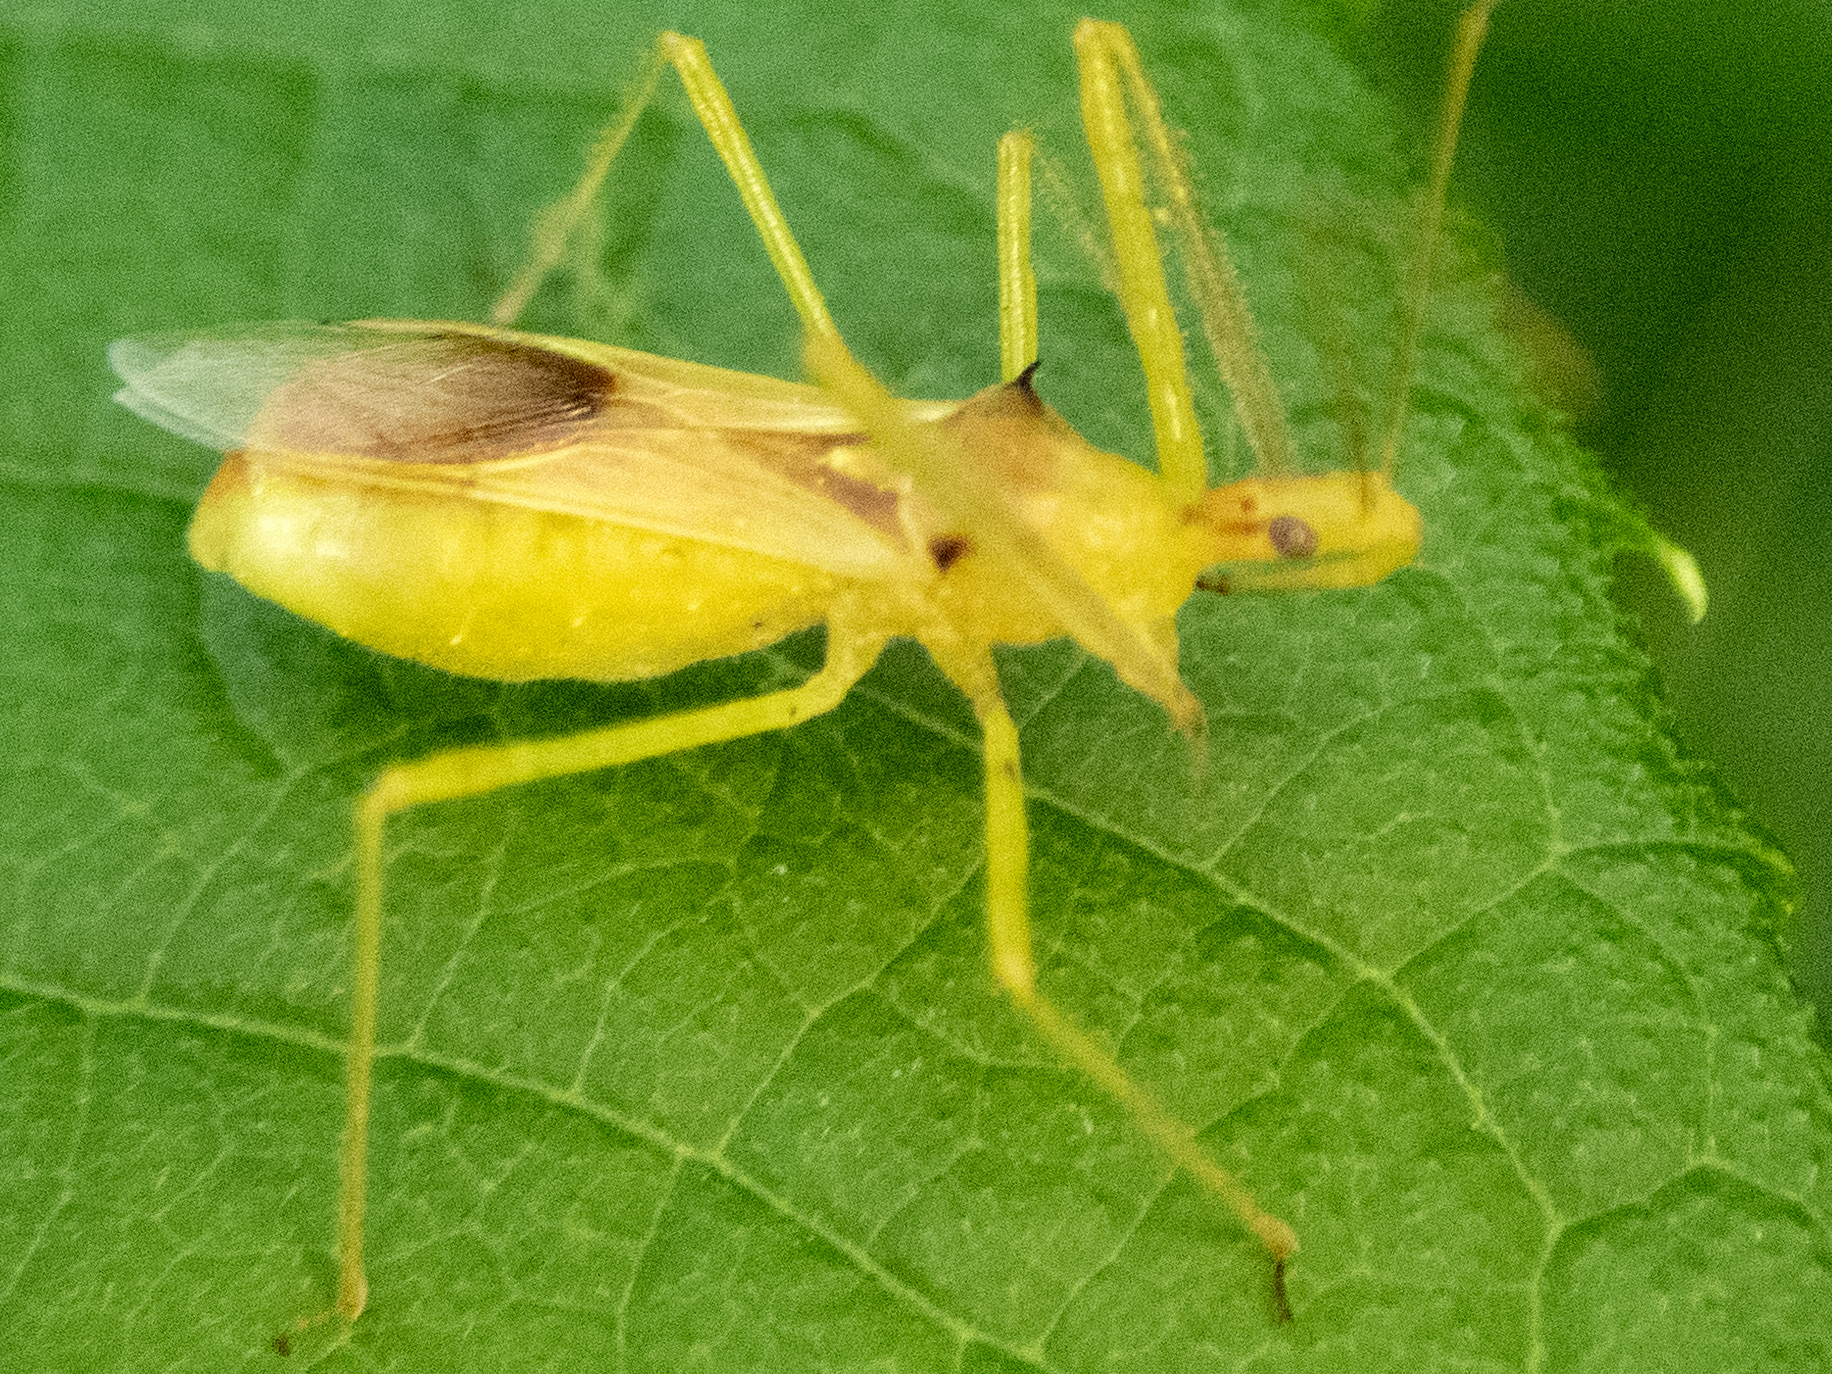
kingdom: Animalia
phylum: Arthropoda
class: Insecta
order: Hemiptera
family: Reduviidae
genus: Zelus
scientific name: Zelus luridus
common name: Pale green assassin bug
